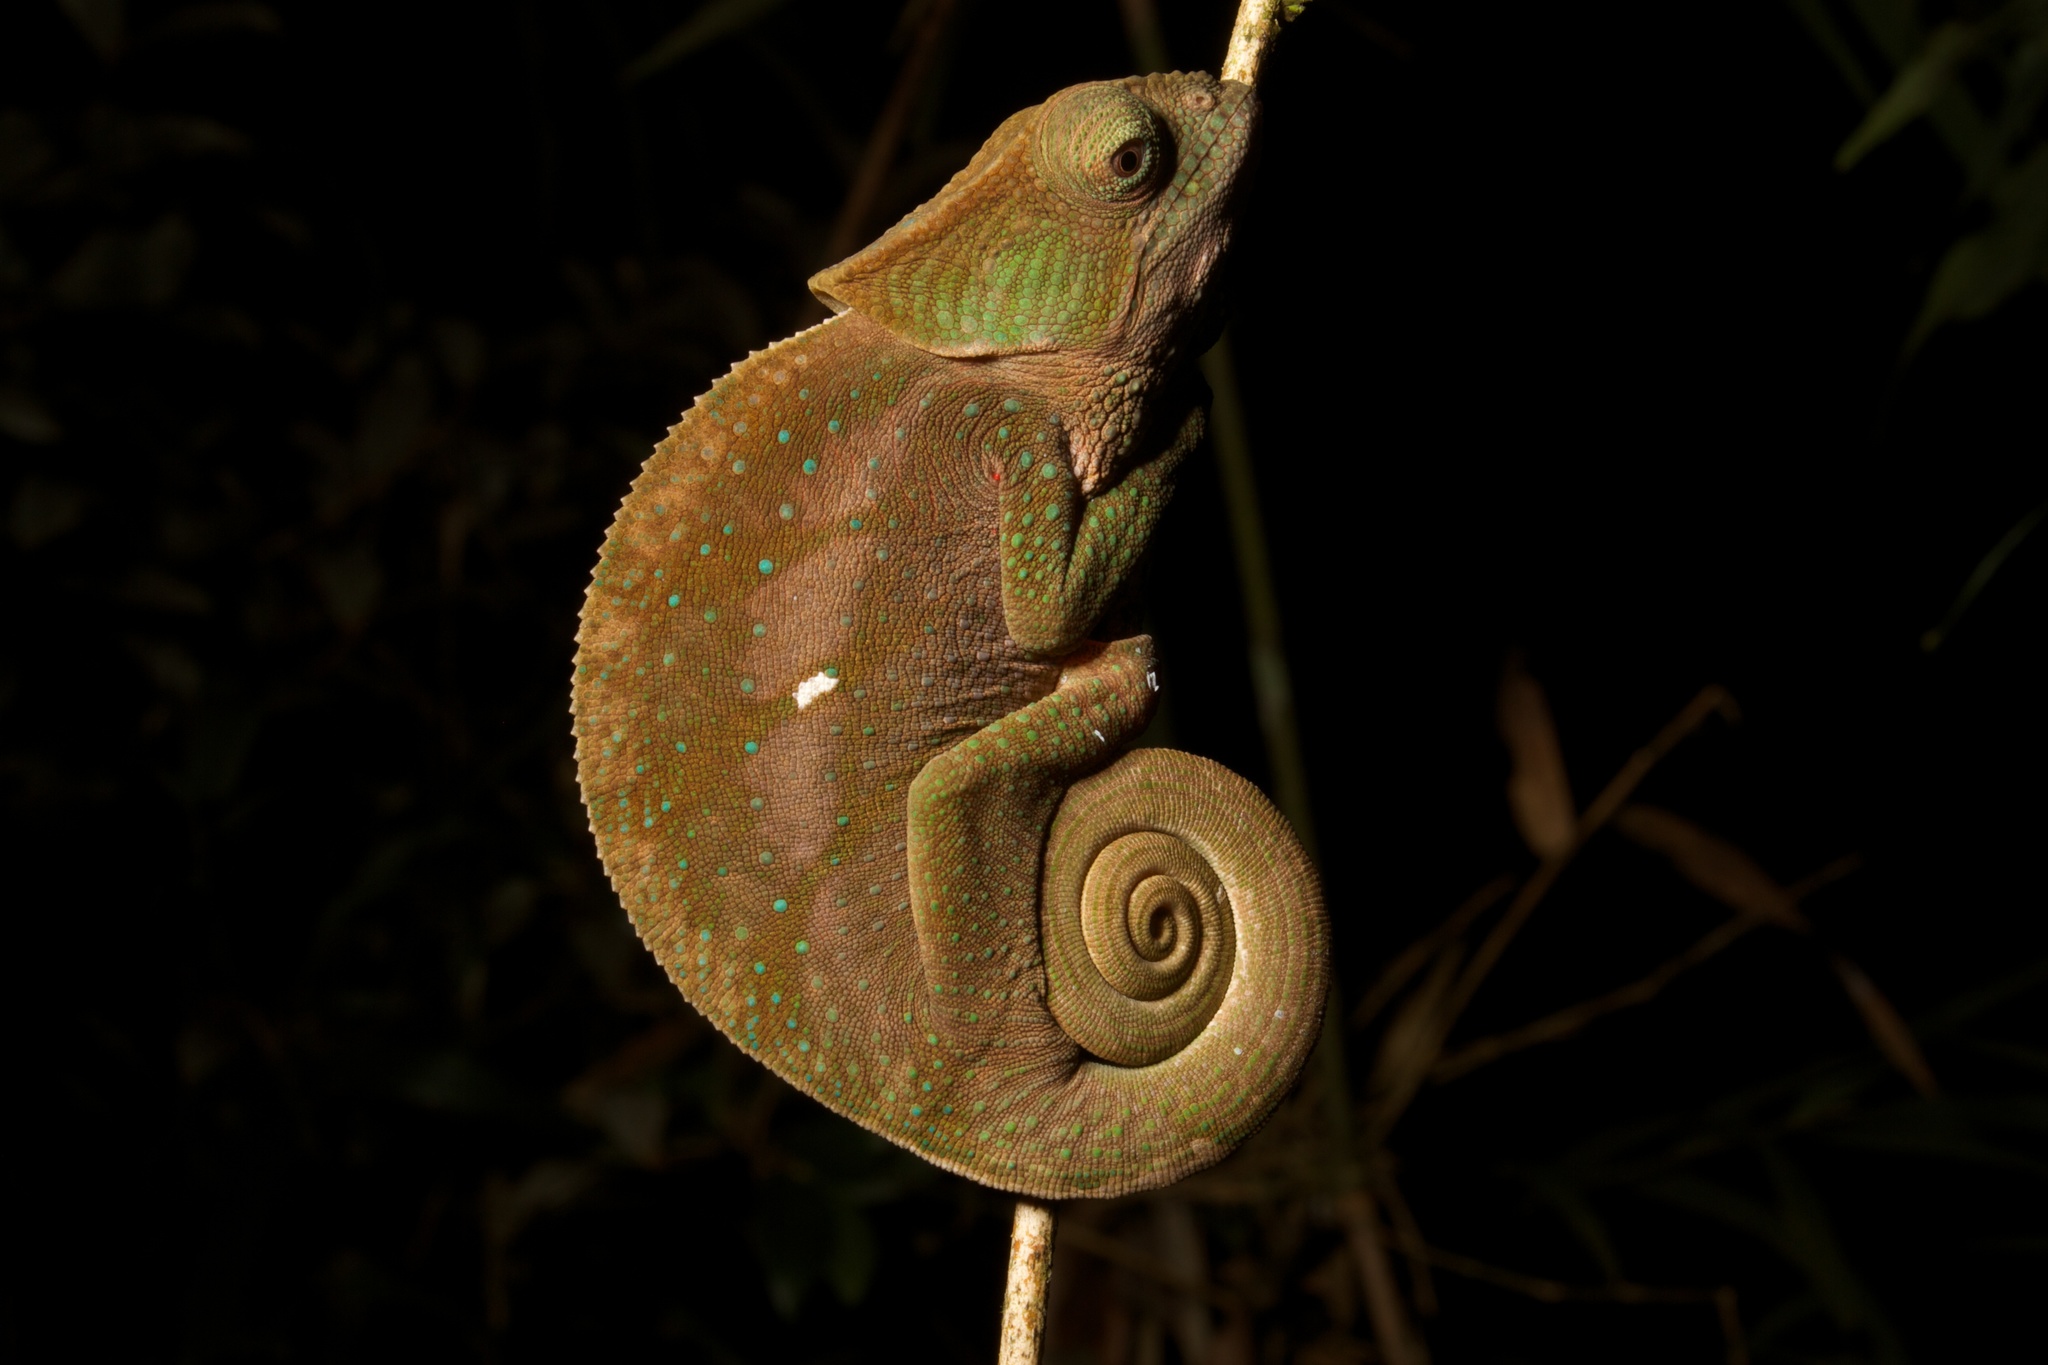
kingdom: Animalia
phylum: Chordata
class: Squamata
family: Chamaeleonidae
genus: Calumma
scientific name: Calumma oshaughnessyi
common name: O'shaughnessy's chameleon
